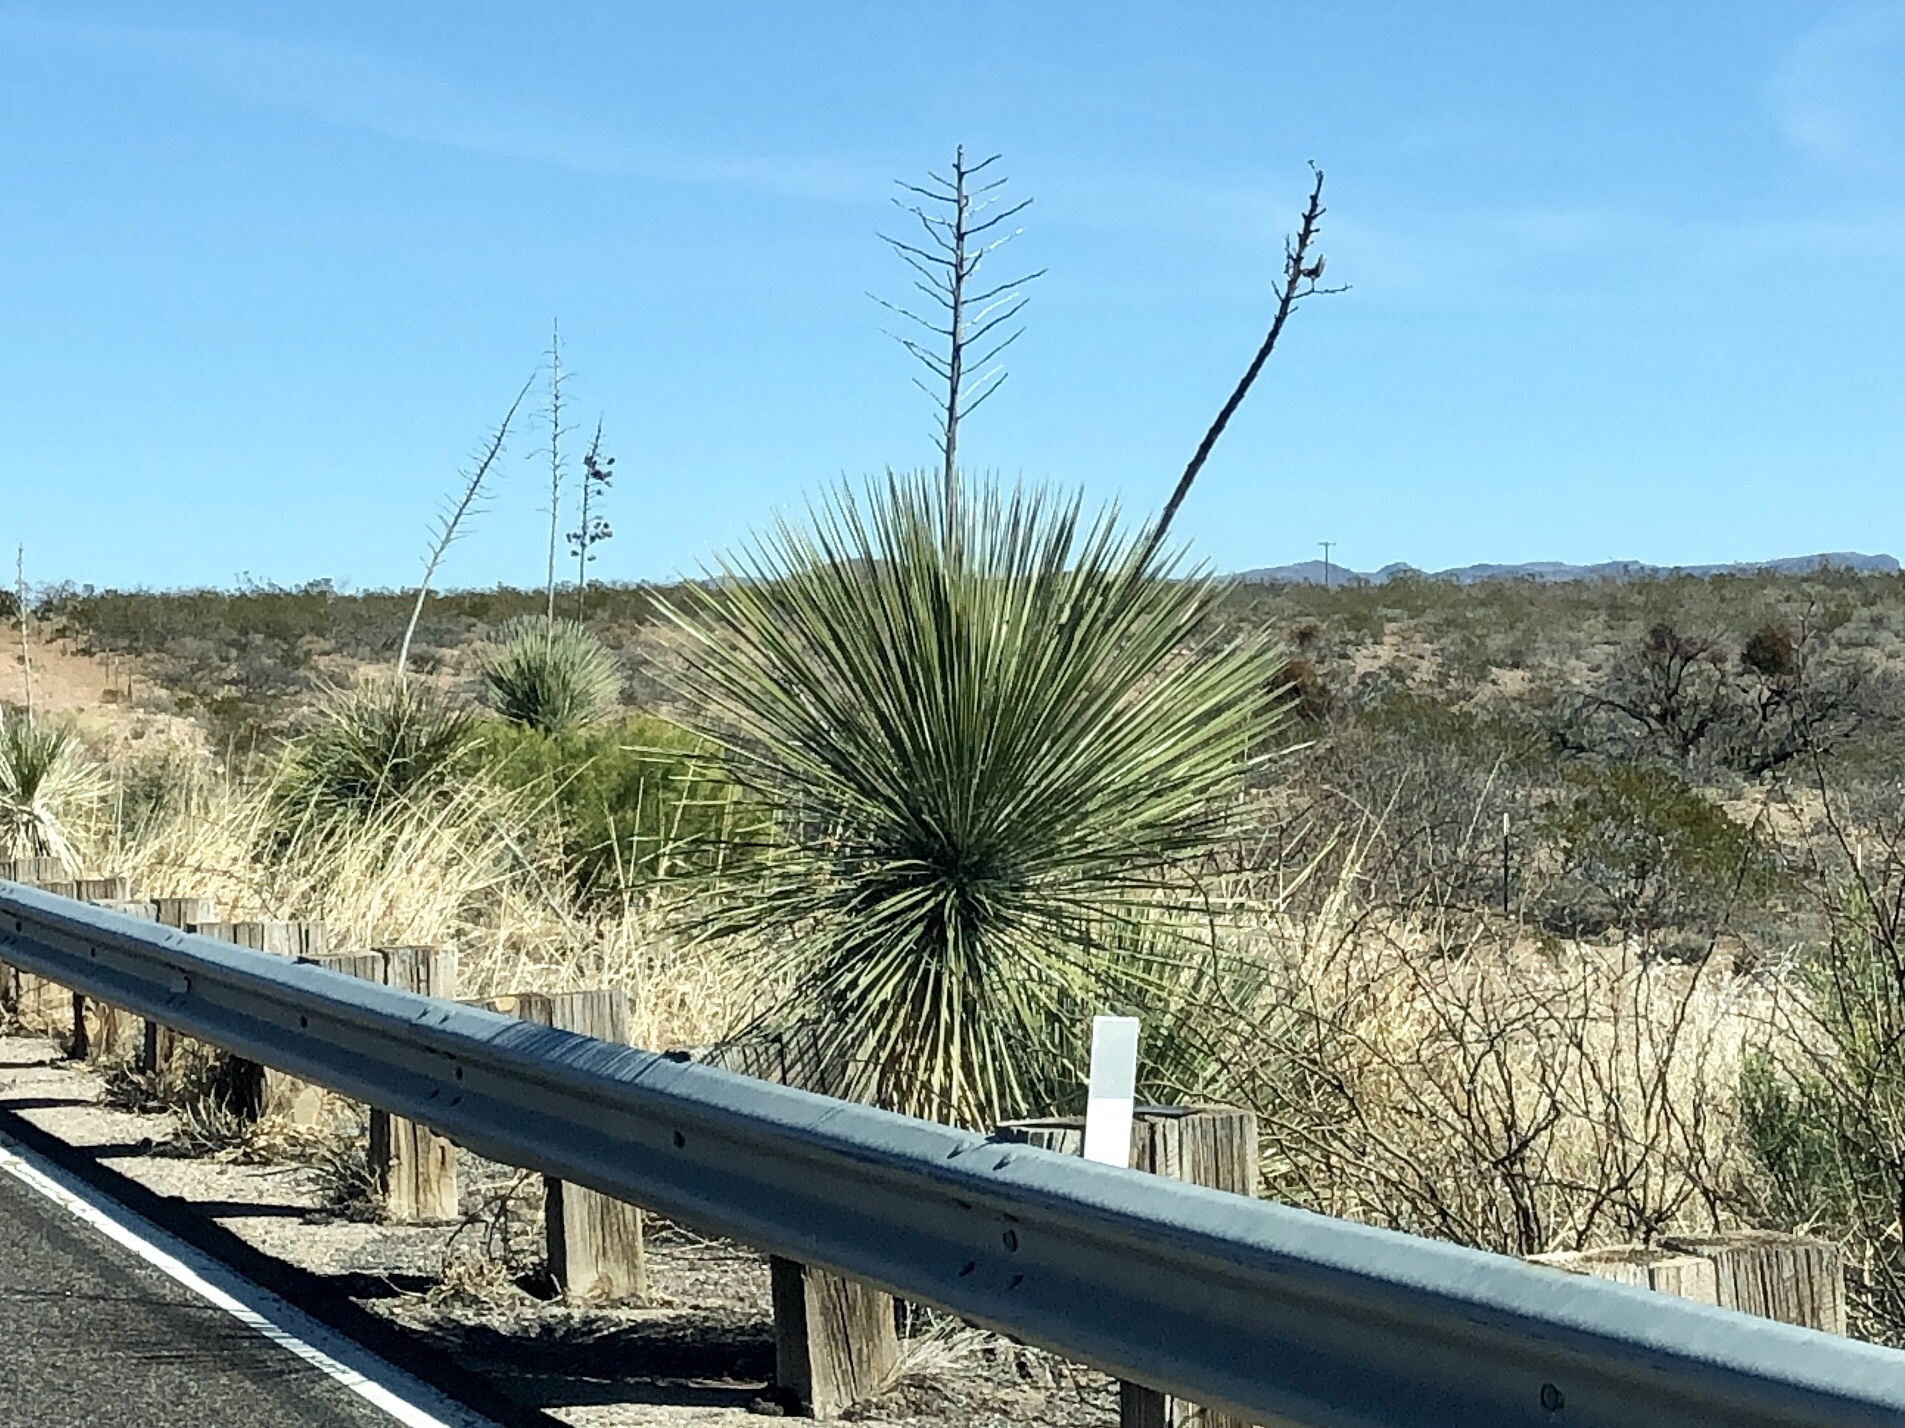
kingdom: Plantae
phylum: Tracheophyta
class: Liliopsida
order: Asparagales
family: Asparagaceae
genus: Yucca
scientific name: Yucca elata
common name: Palmella
